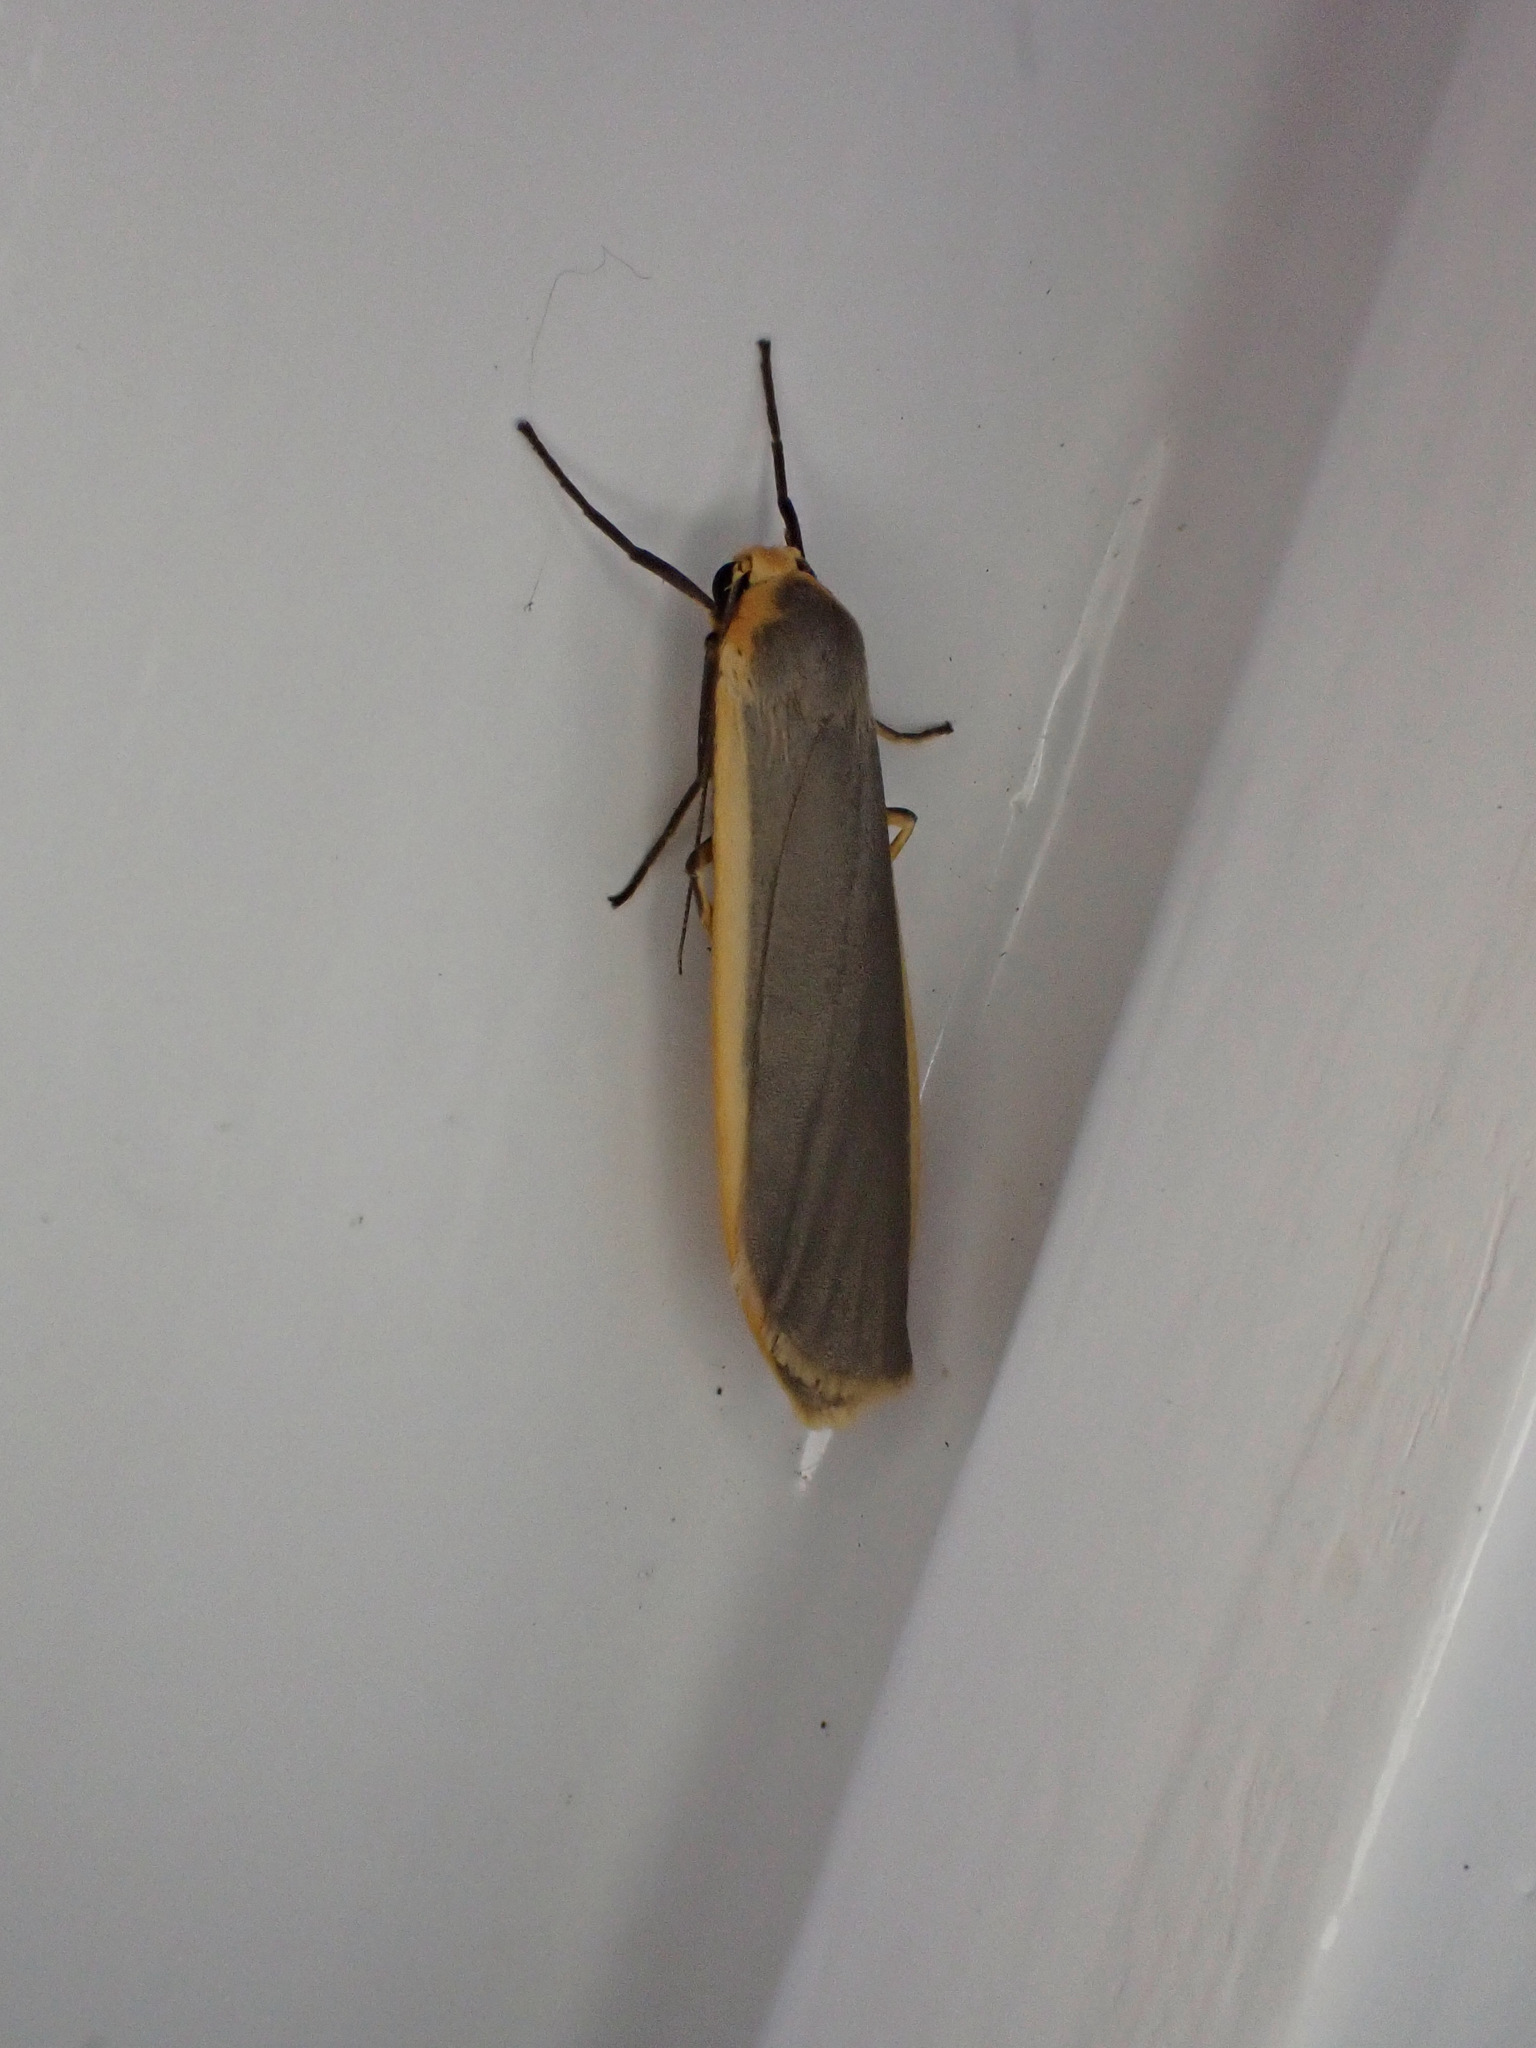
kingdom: Animalia
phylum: Arthropoda
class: Insecta
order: Lepidoptera
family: Erebidae
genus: Nyea
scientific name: Nyea lurideola
